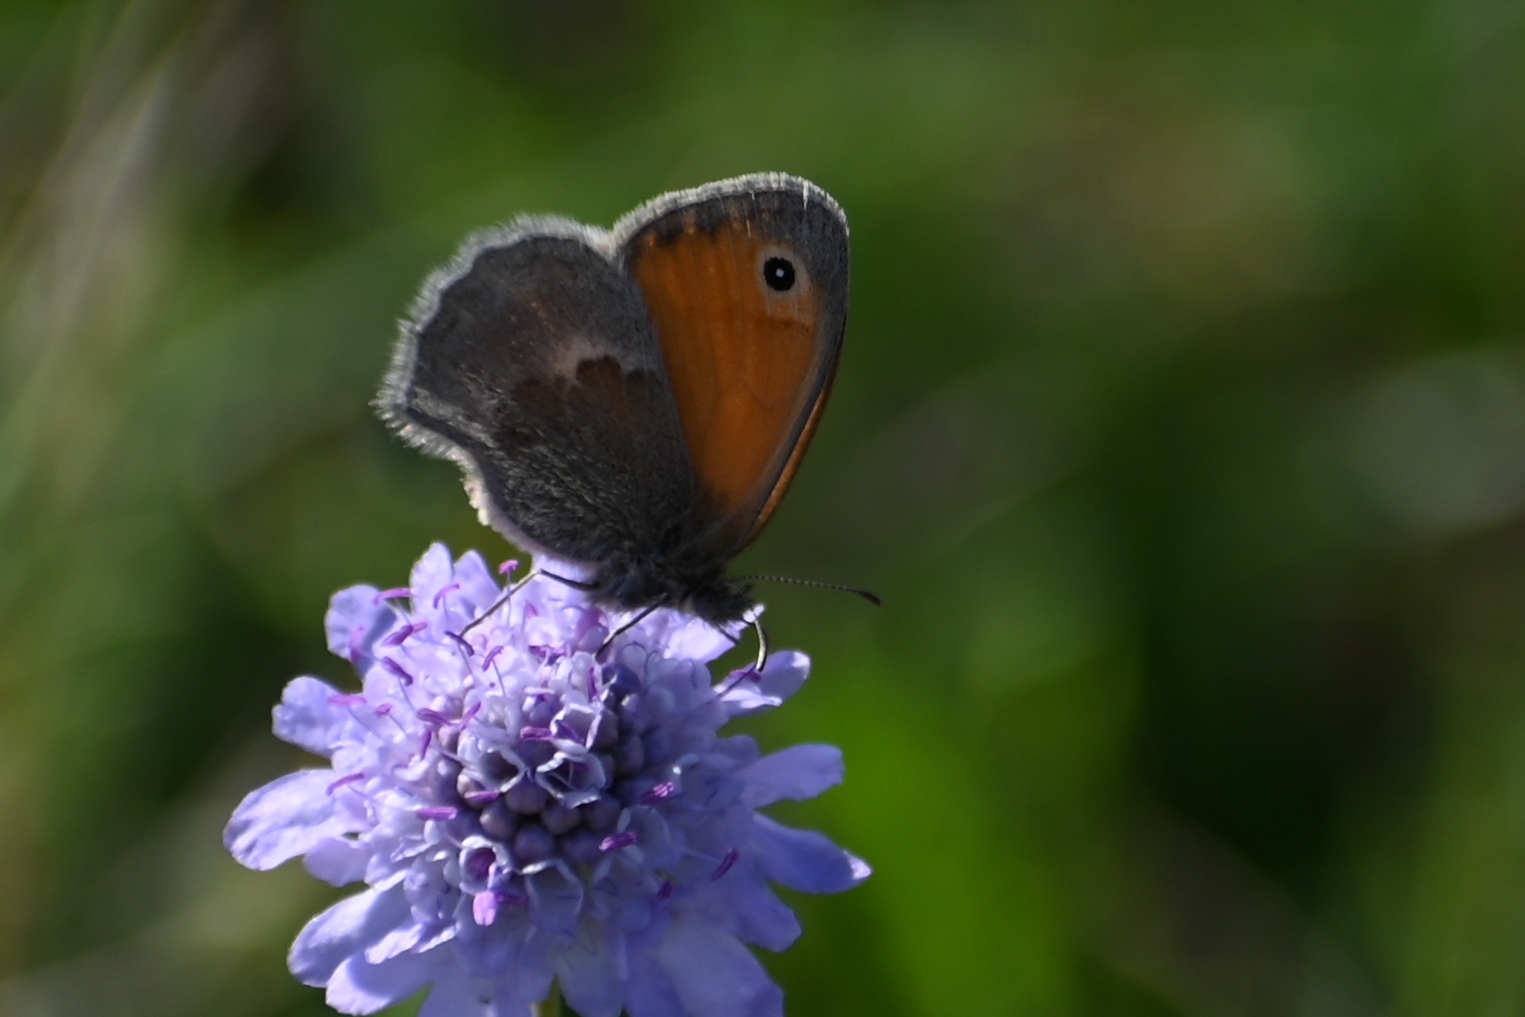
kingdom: Animalia
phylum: Arthropoda
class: Insecta
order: Lepidoptera
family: Nymphalidae
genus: Coenonympha
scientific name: Coenonympha pamphilus
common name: Small heath
